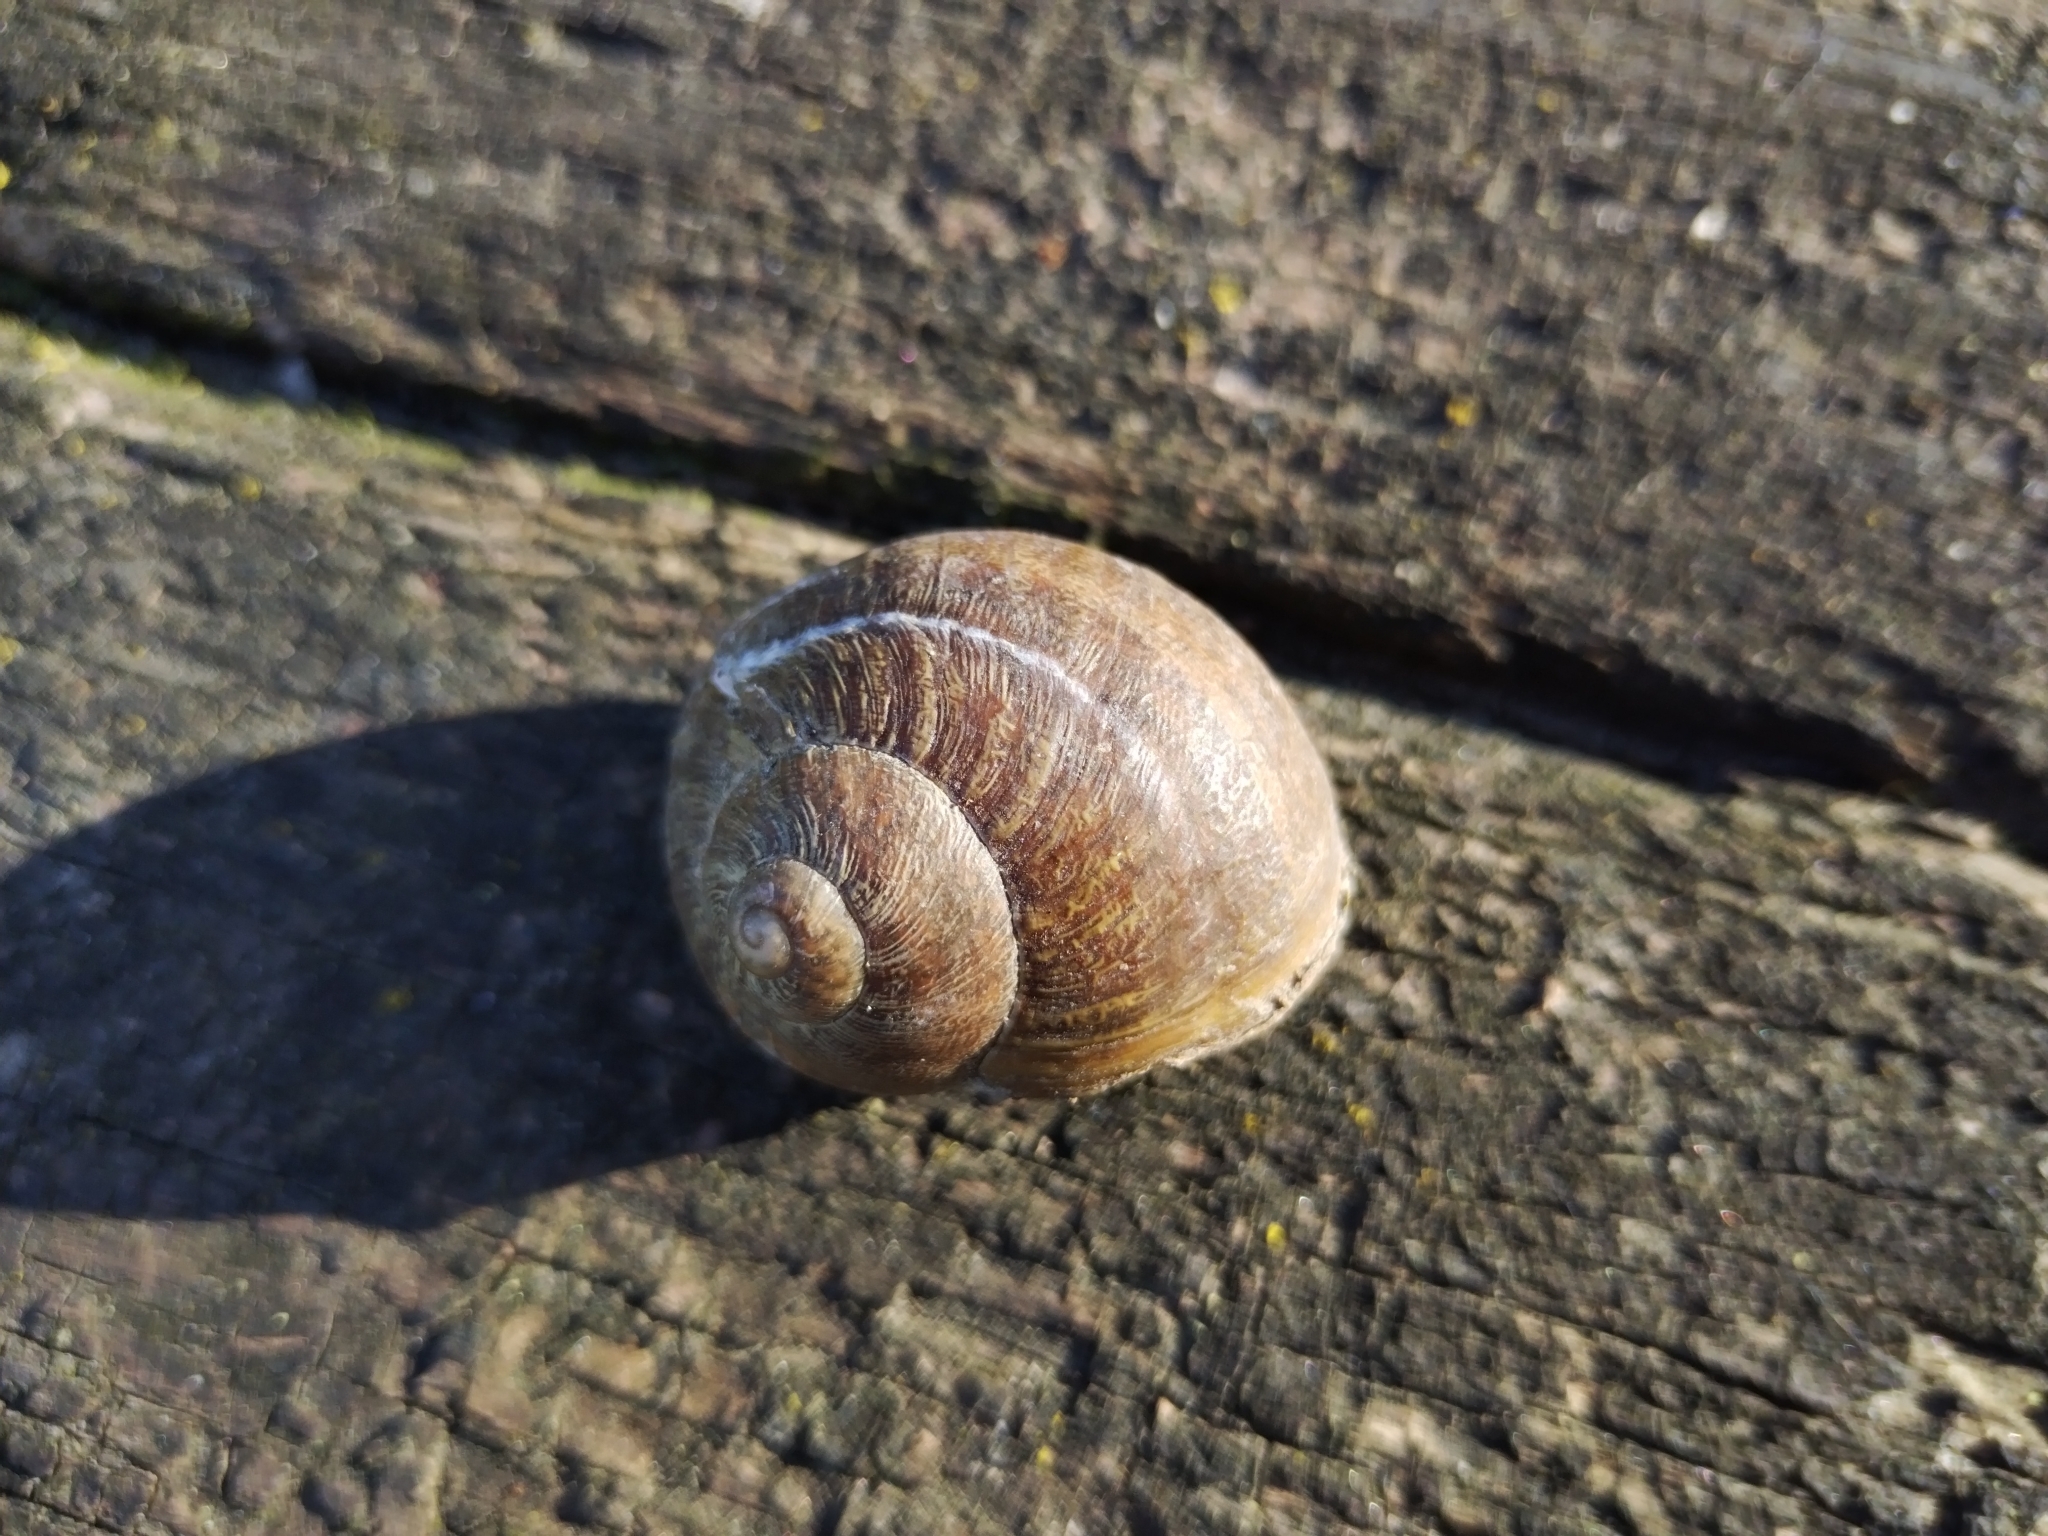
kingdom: Animalia
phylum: Mollusca
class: Gastropoda
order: Stylommatophora
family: Helicidae
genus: Cornu
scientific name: Cornu aspersum
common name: Brown garden snail
